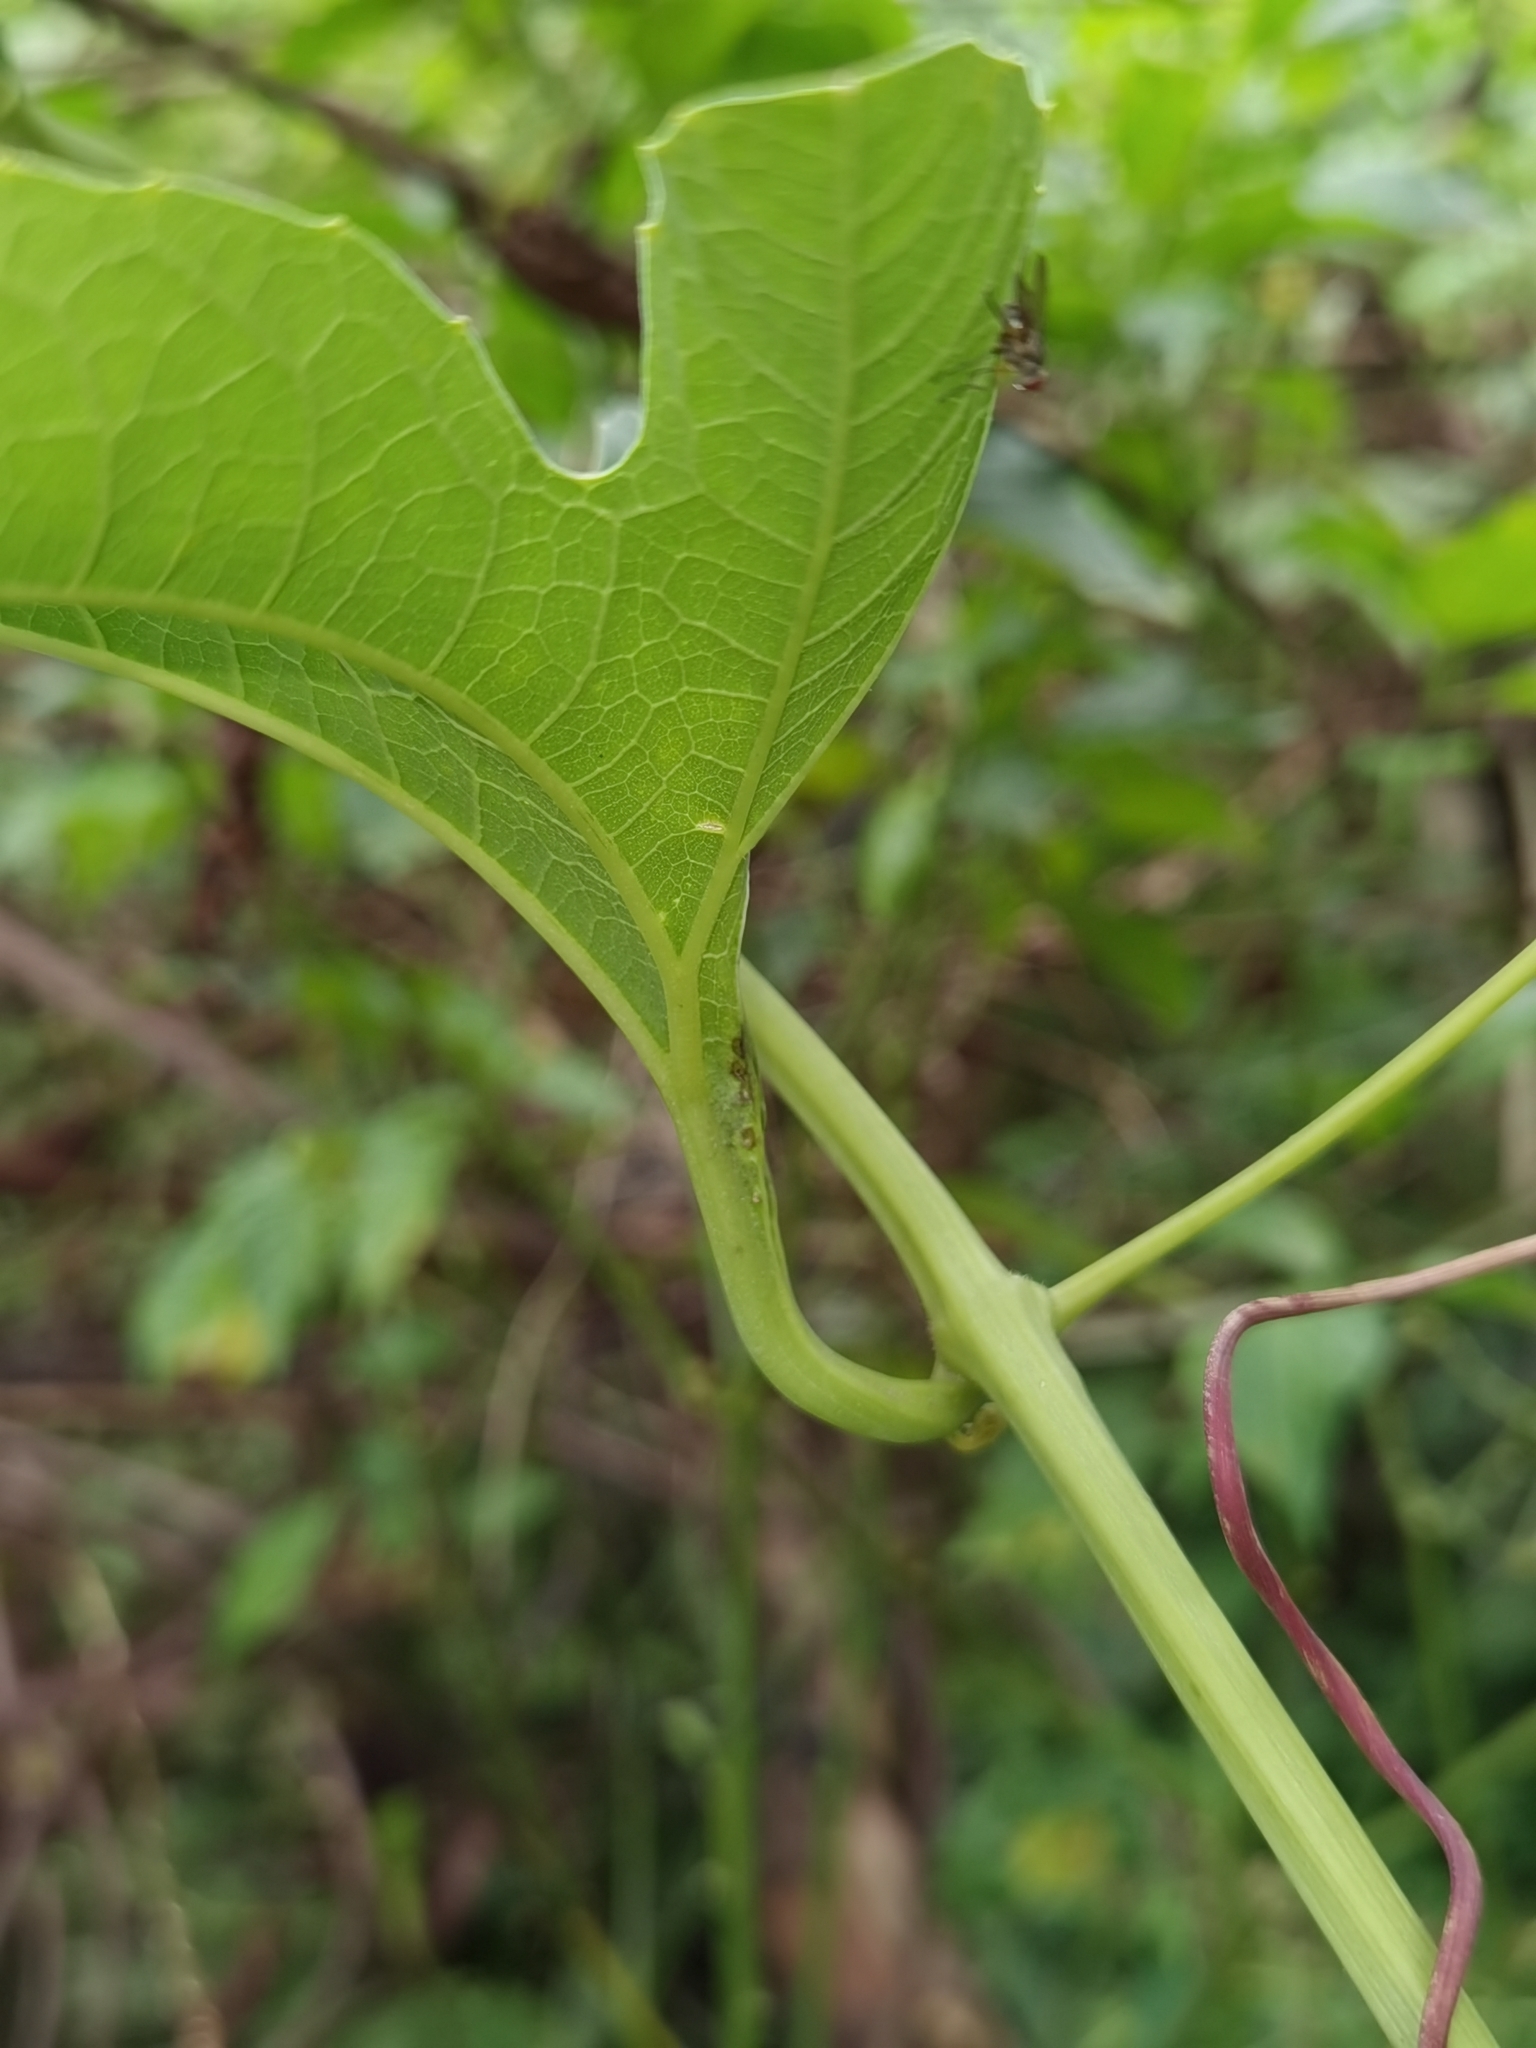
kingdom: Plantae
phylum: Tracheophyta
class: Magnoliopsida
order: Cucurbitales
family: Cucurbitaceae
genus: Cionosicys
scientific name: Cionosicys macranthus
